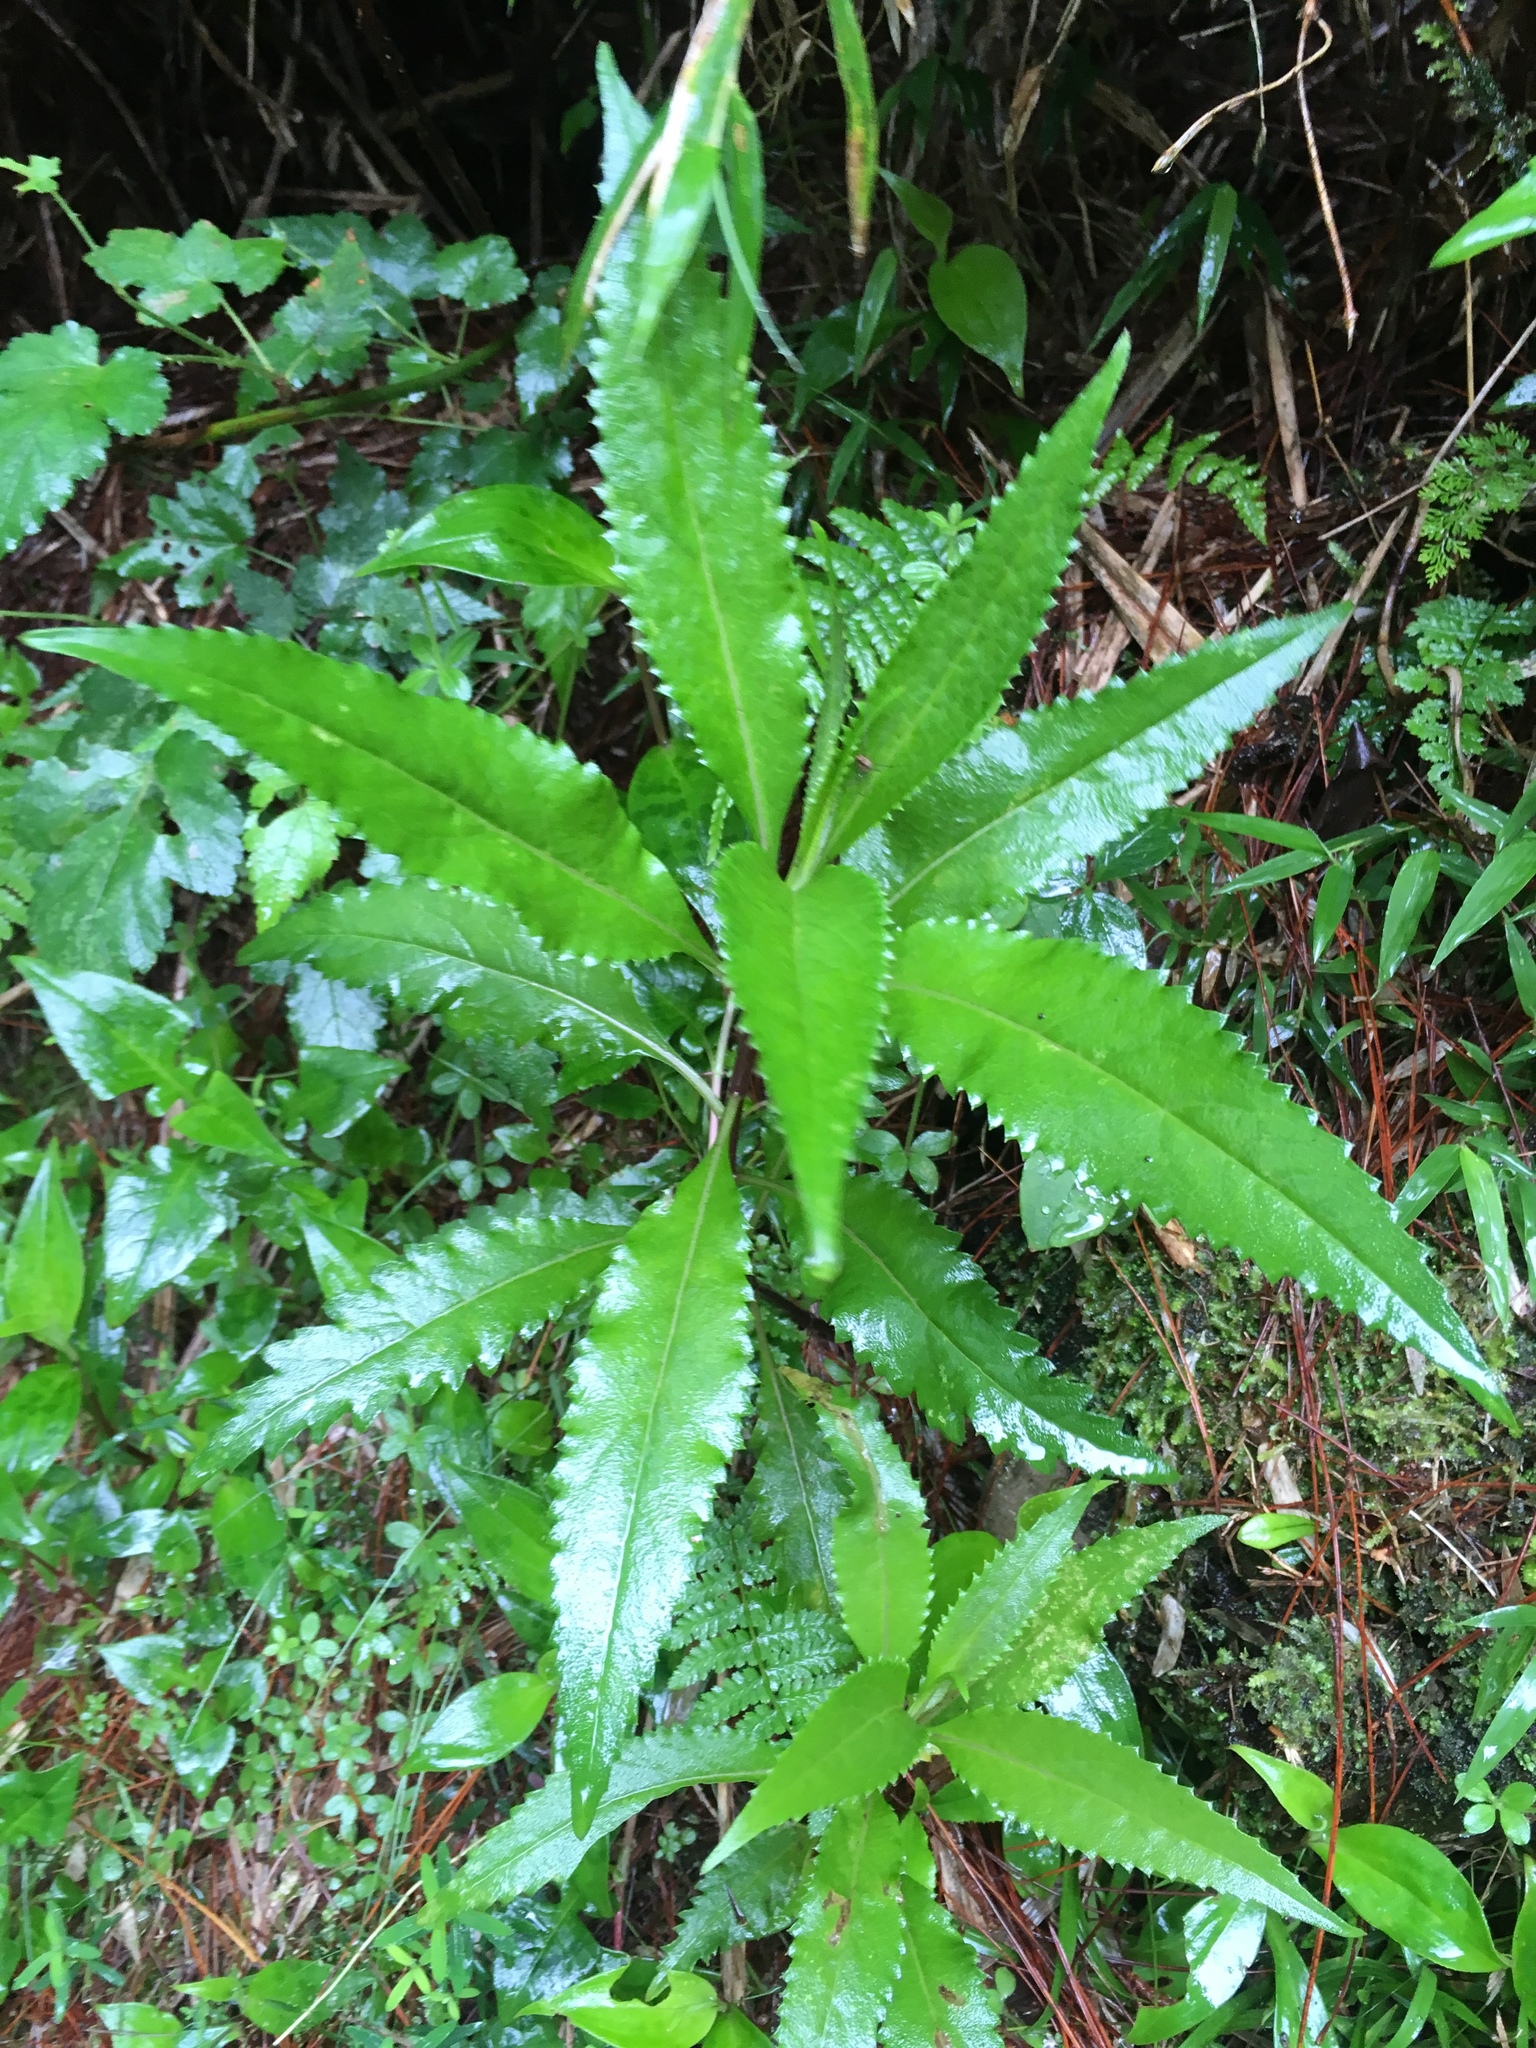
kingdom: Plantae
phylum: Tracheophyta
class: Magnoliopsida
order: Asterales
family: Asteraceae
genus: Jacobaea
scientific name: Jacobaea morrisonensis
